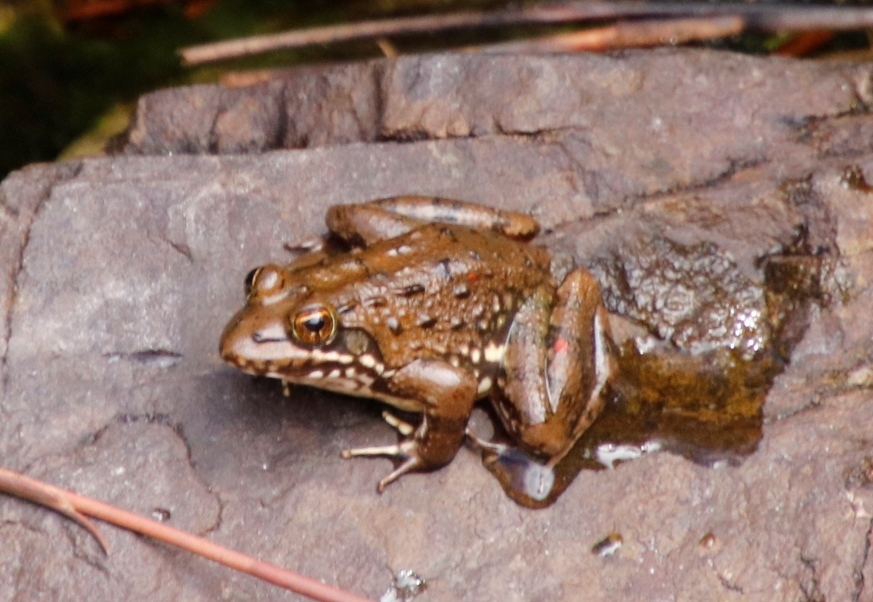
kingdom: Animalia
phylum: Chordata
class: Amphibia
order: Anura
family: Pyxicephalidae
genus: Amietia
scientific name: Amietia fuscigula
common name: Cape rana
